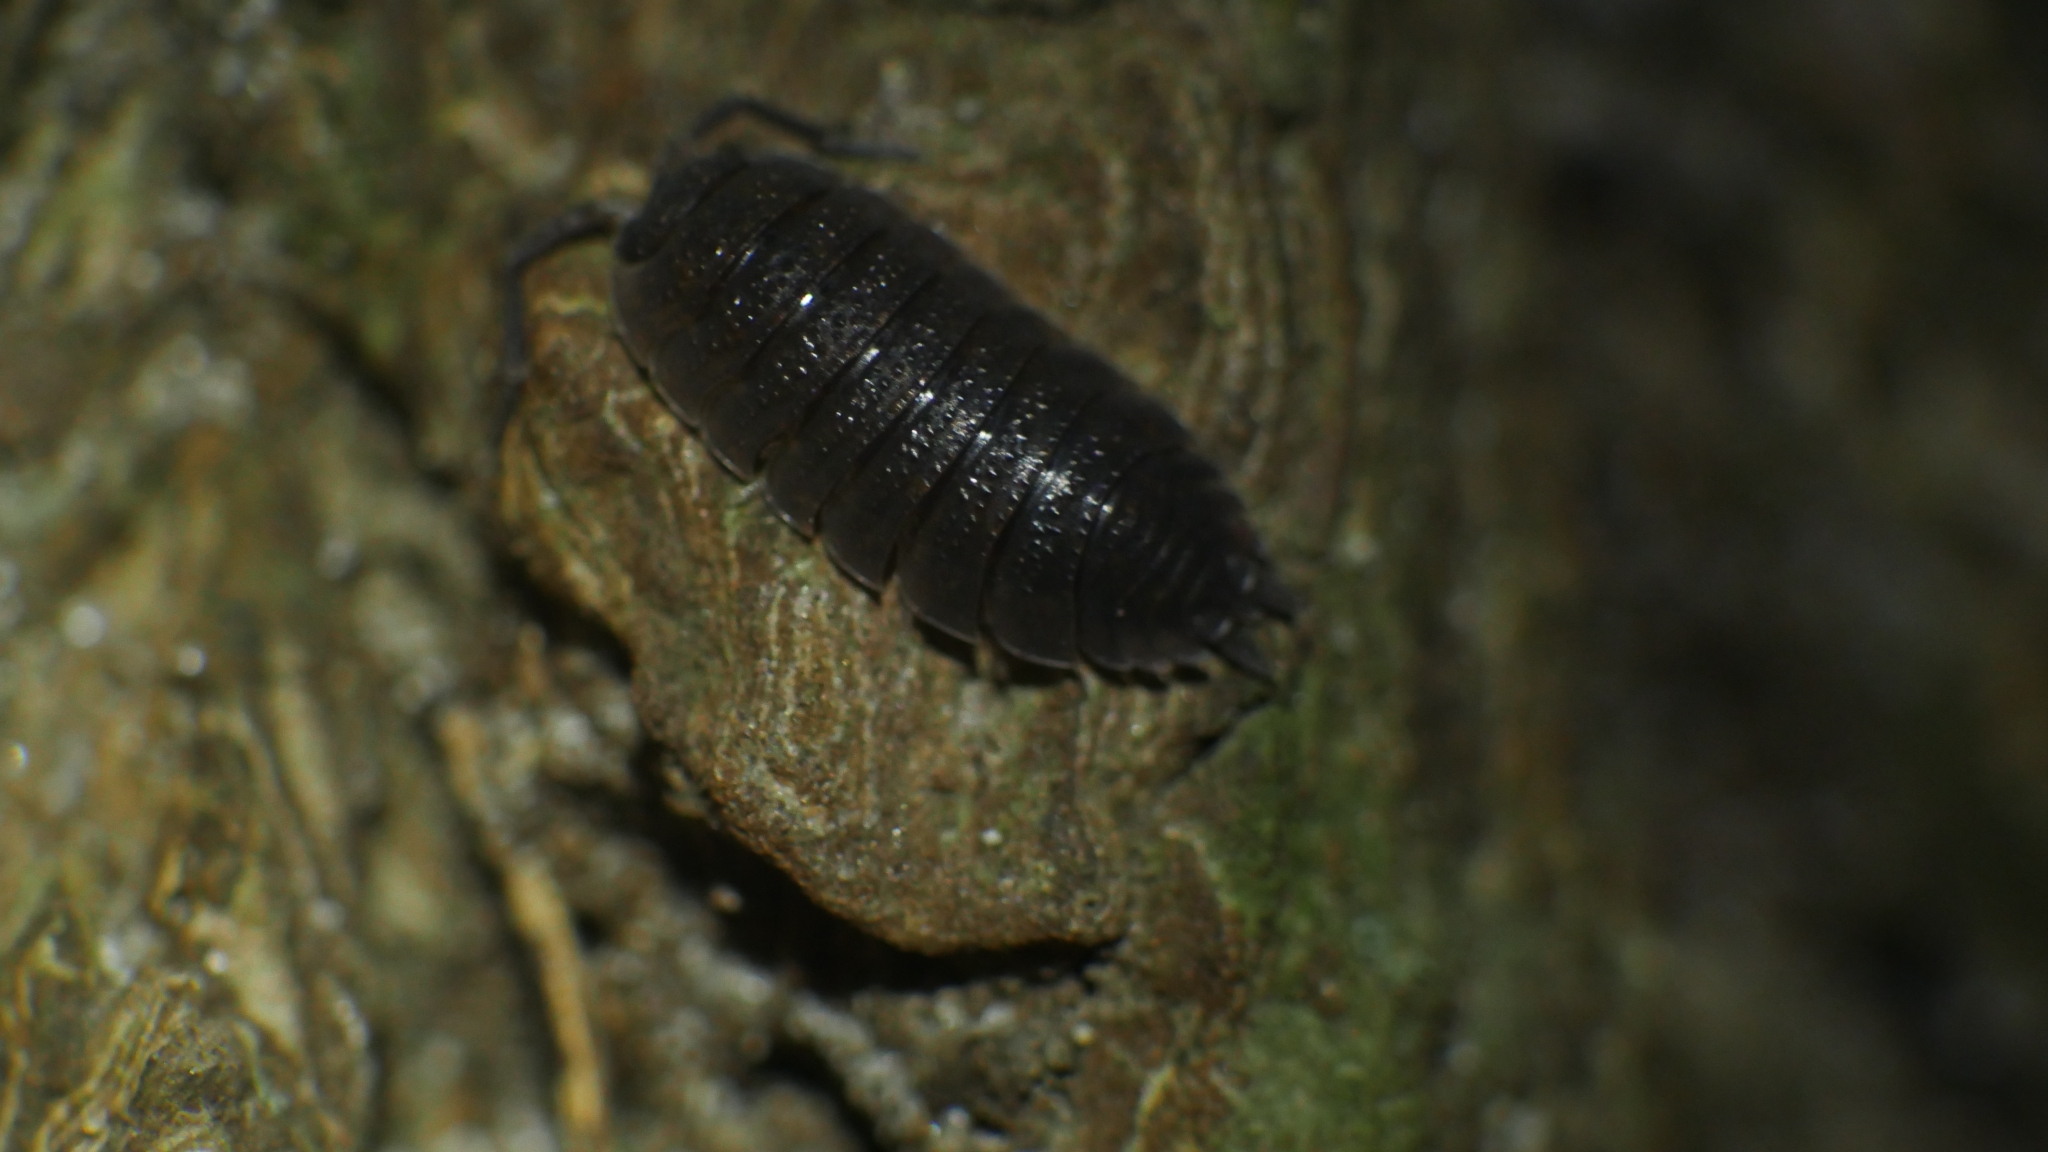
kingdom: Animalia
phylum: Arthropoda
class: Malacostraca
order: Isopoda
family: Porcellionidae
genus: Porcellio
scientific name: Porcellio scaber
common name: Common rough woodlouse
